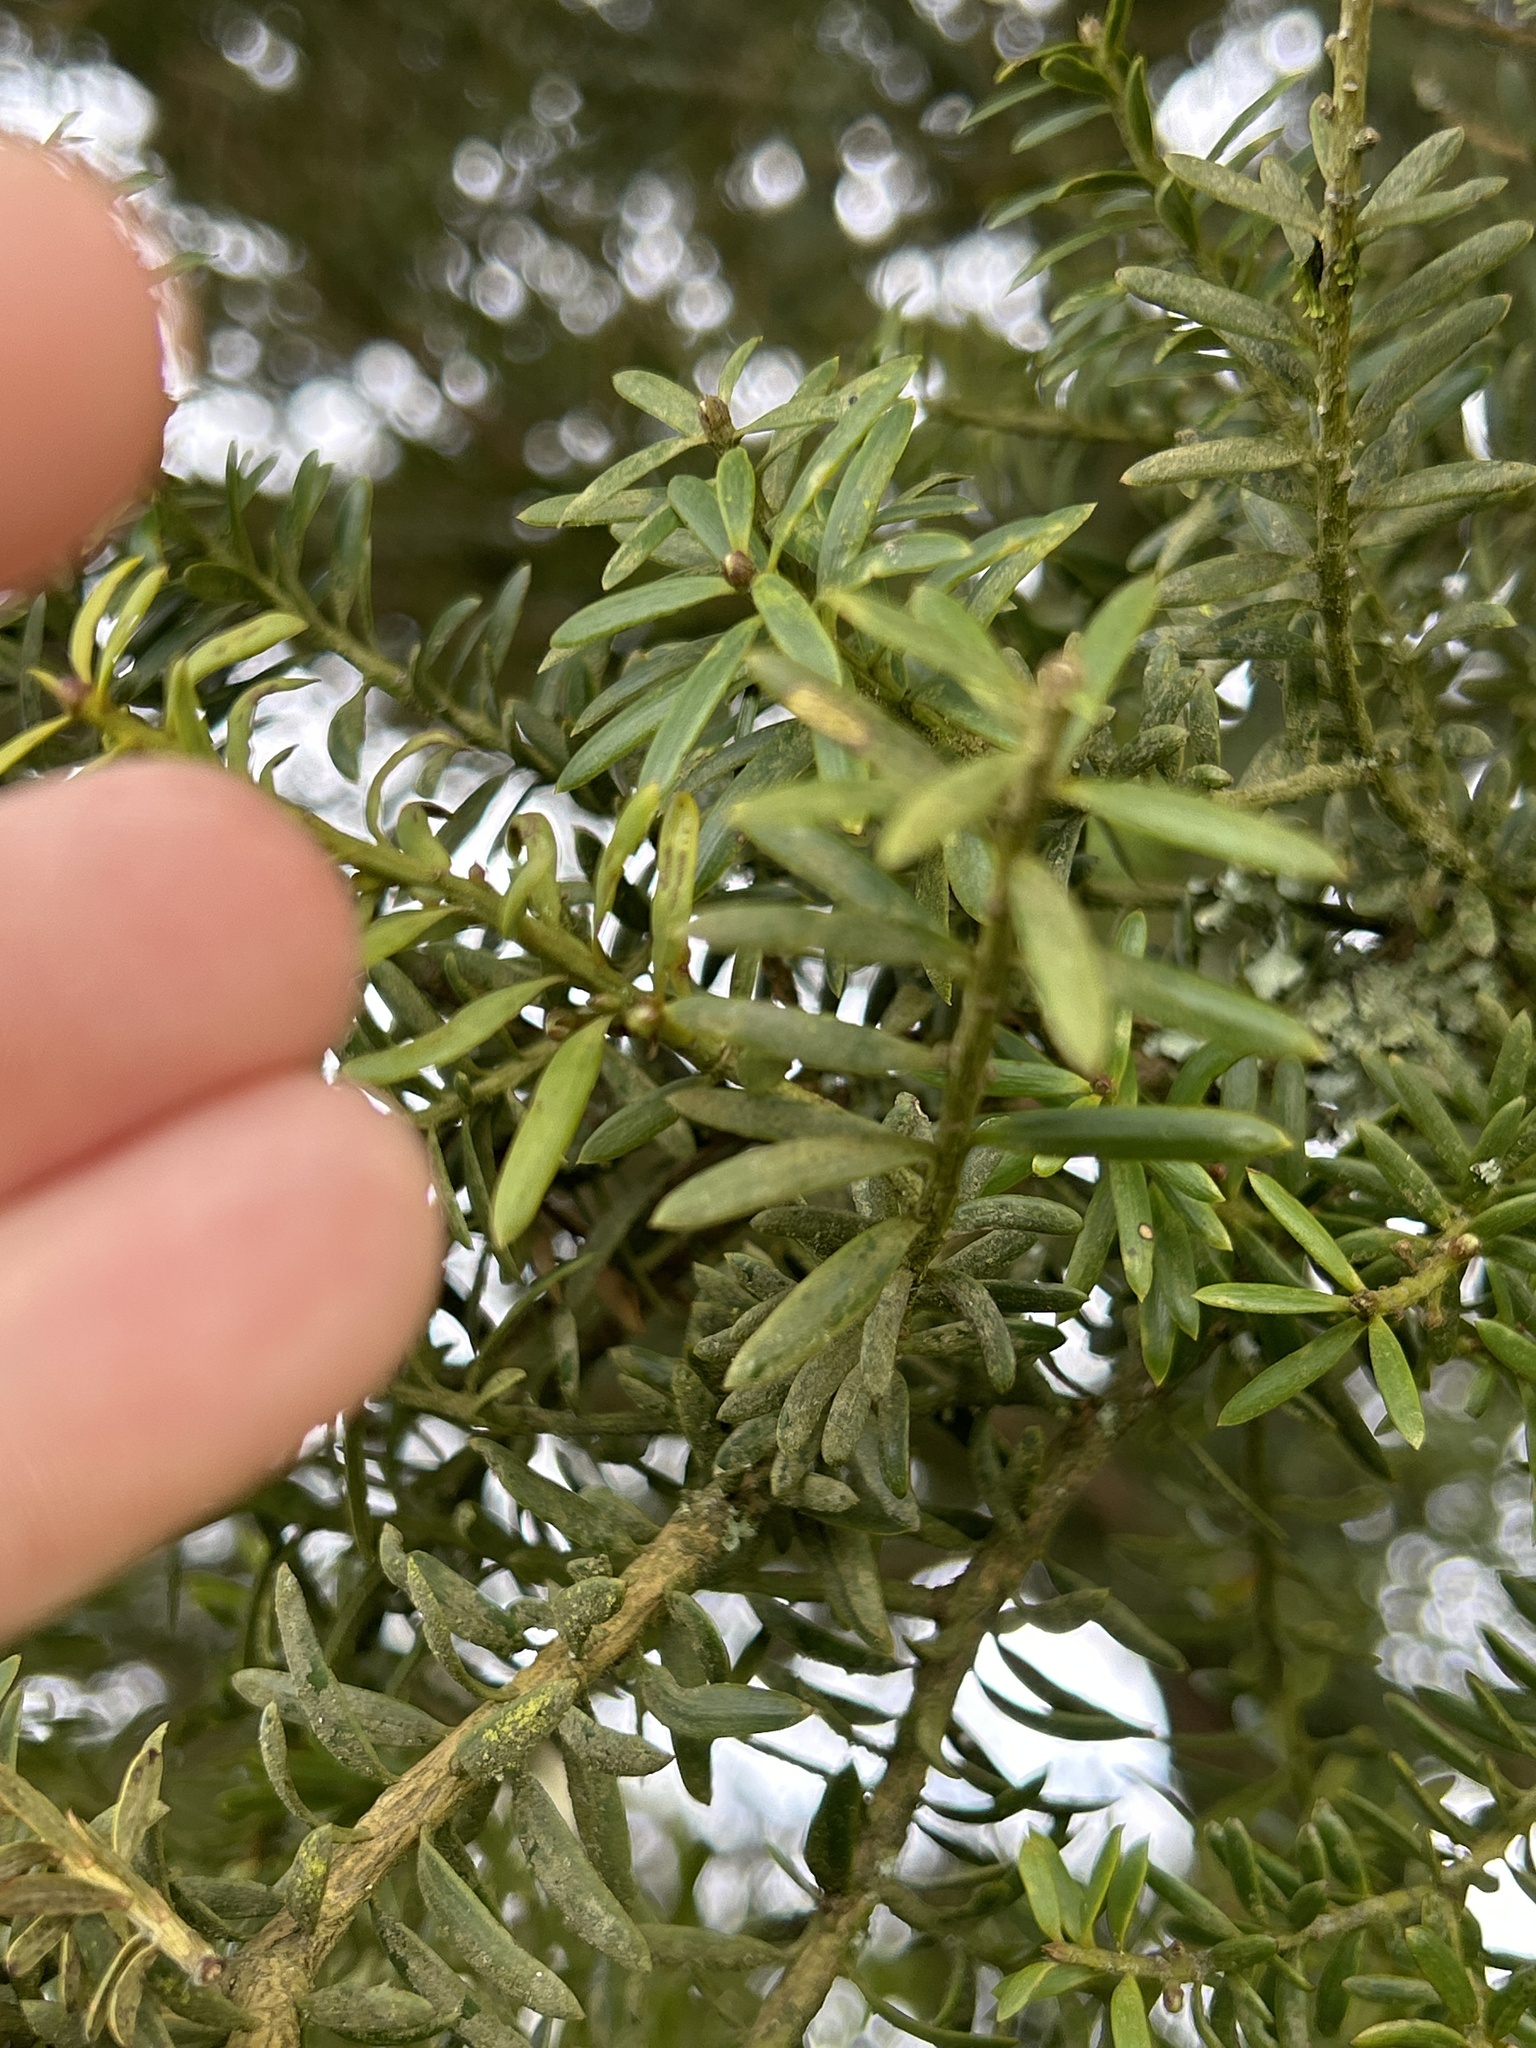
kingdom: Plantae
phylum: Tracheophyta
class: Pinopsida
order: Pinales
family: Podocarpaceae
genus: Podocarpus
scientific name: Podocarpus totara
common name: Totara
